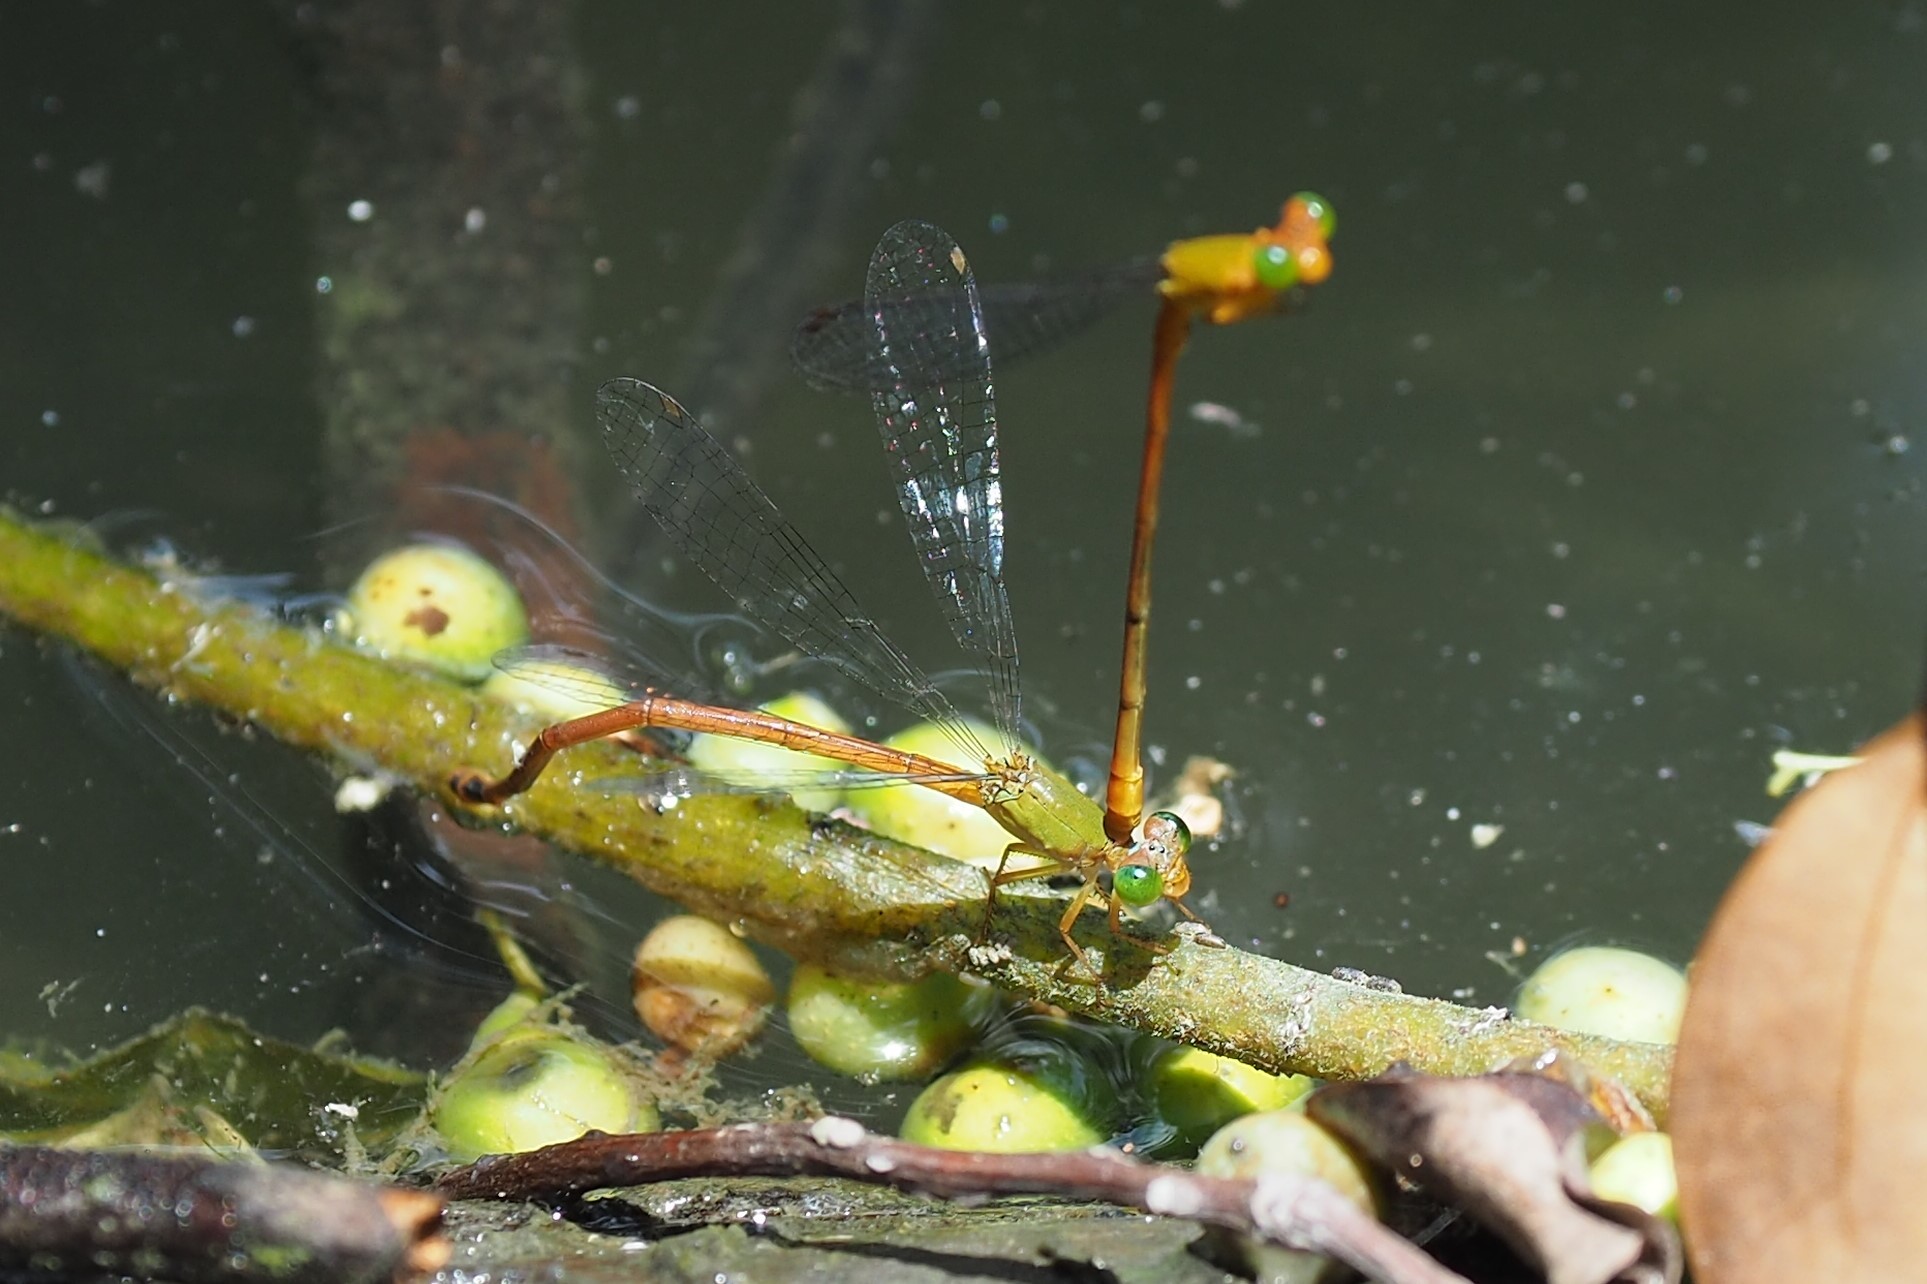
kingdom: Animalia
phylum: Arthropoda
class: Insecta
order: Odonata
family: Coenagrionidae
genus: Ceriagrion
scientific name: Ceriagrion auranticum
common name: Orange-tailed sprite
